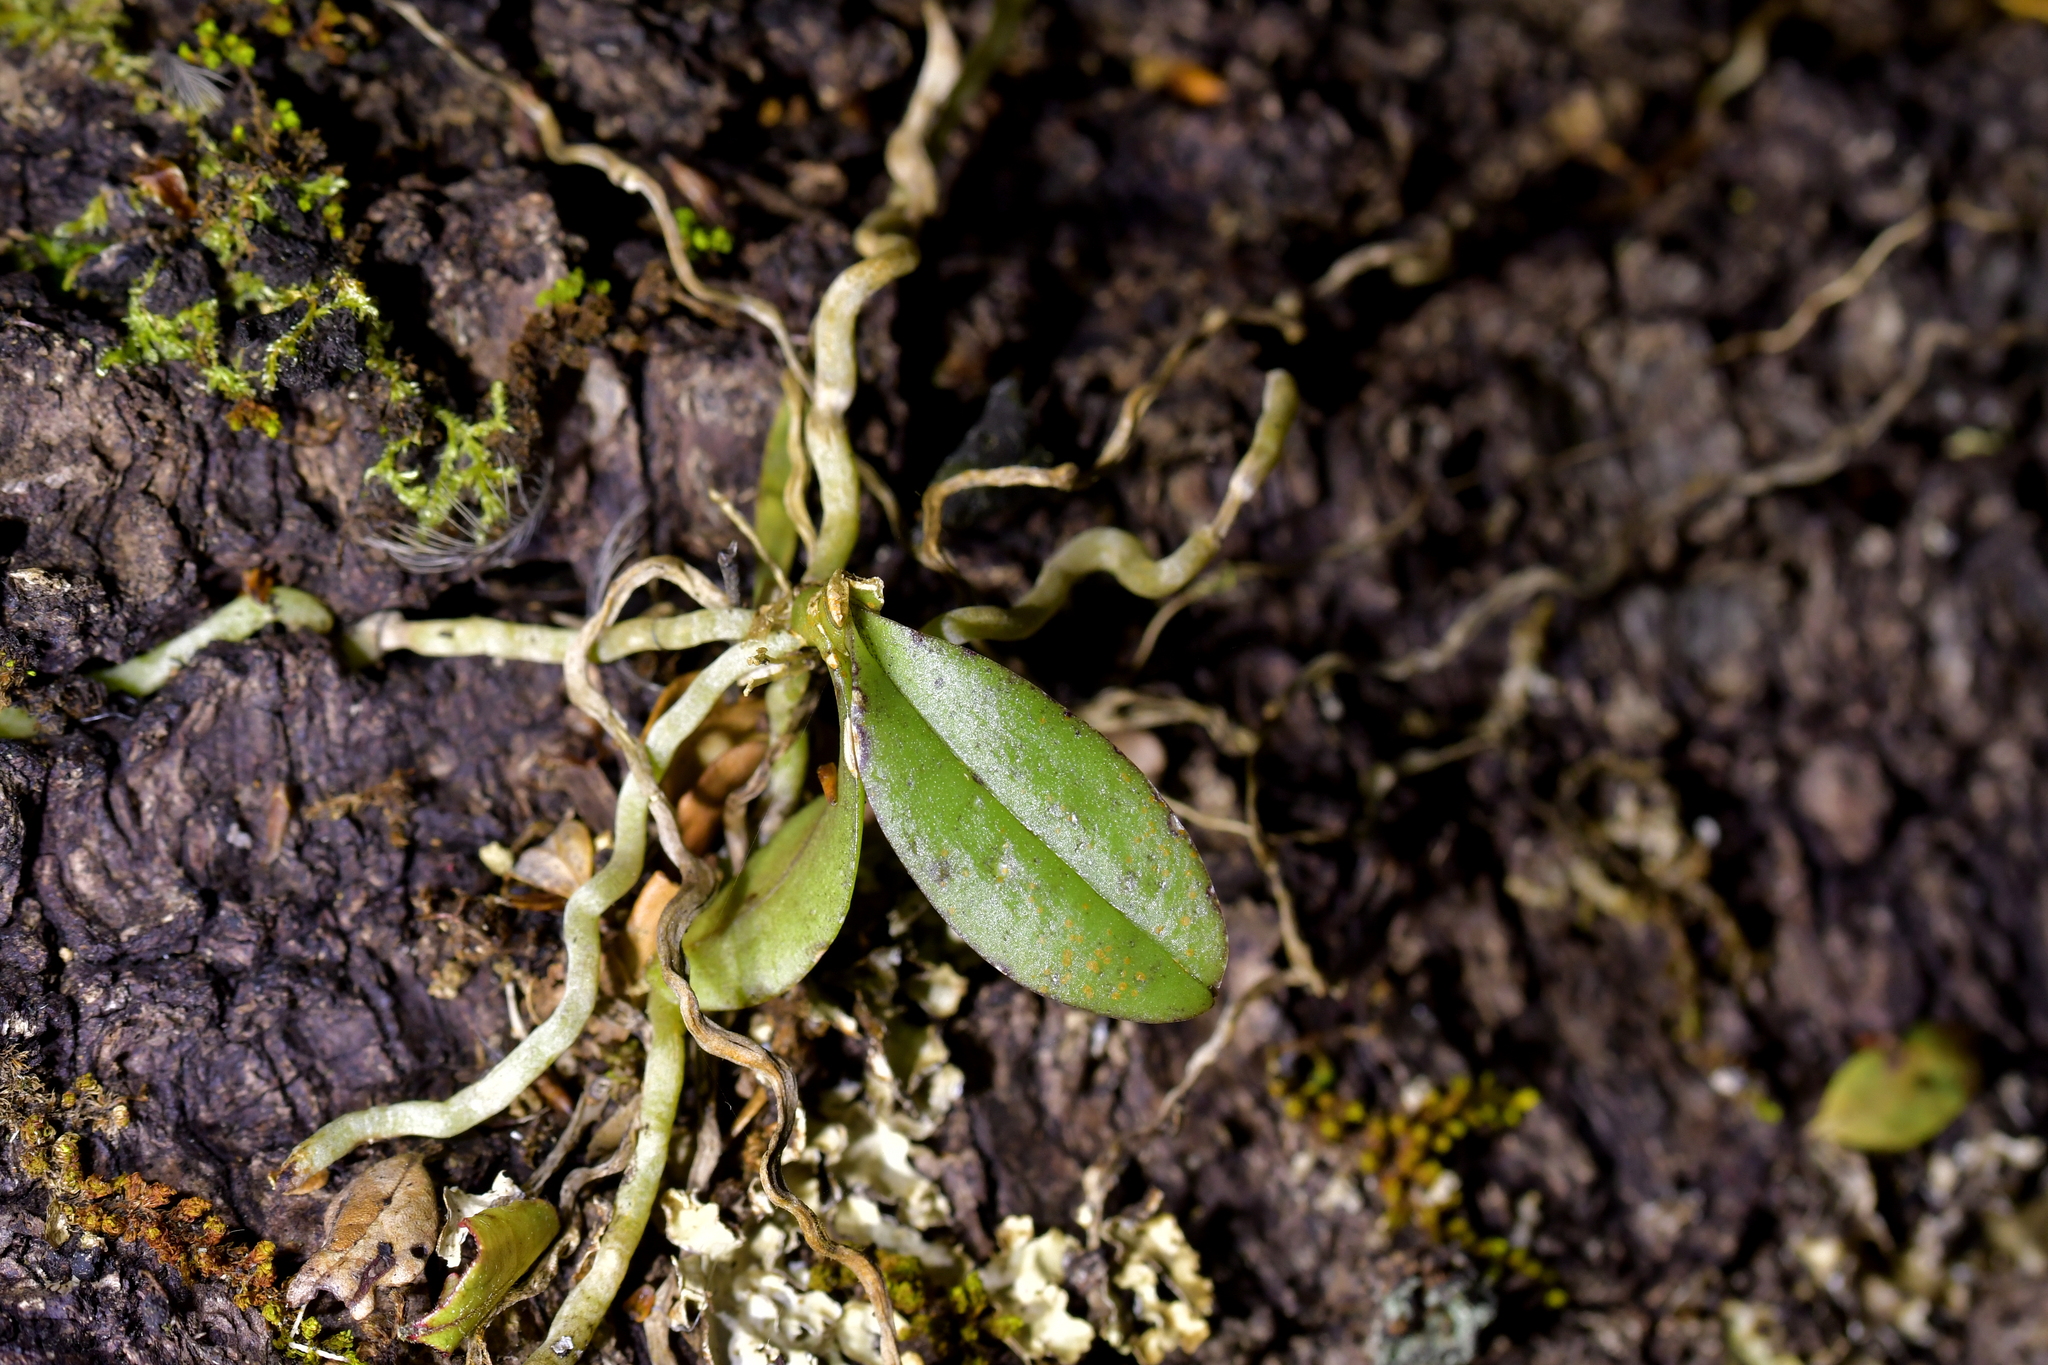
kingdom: Plantae
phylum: Tracheophyta
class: Liliopsida
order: Asparagales
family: Orchidaceae
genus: Drymoanthus
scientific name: Drymoanthus adversus
